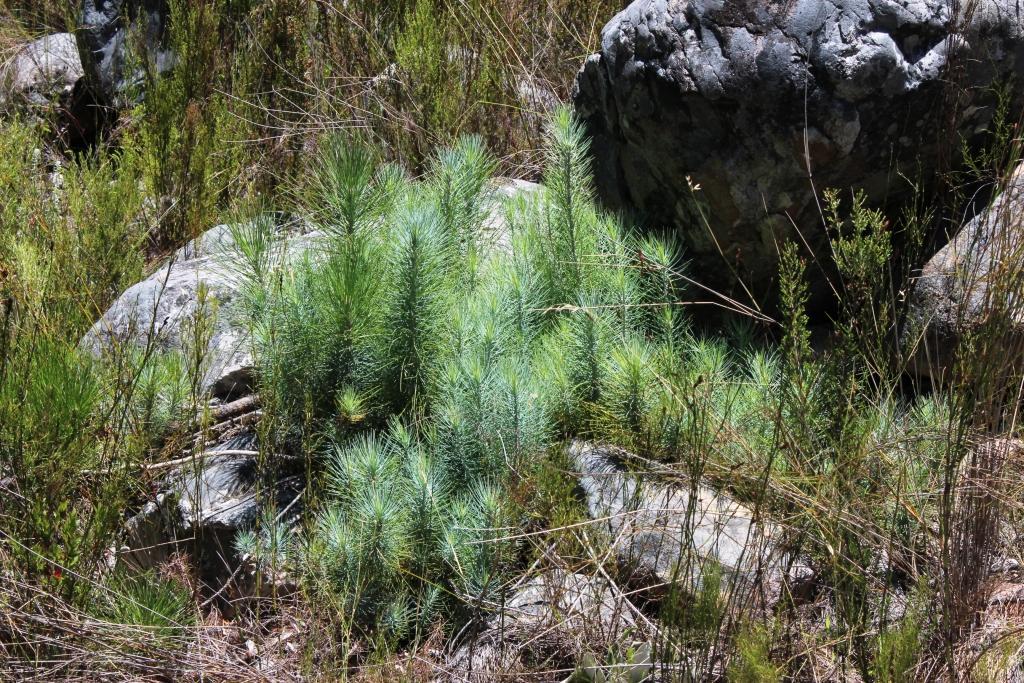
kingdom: Plantae
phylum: Tracheophyta
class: Pinopsida
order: Pinales
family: Pinaceae
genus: Pinus
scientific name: Pinus canariensis
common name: Canary islands pine
